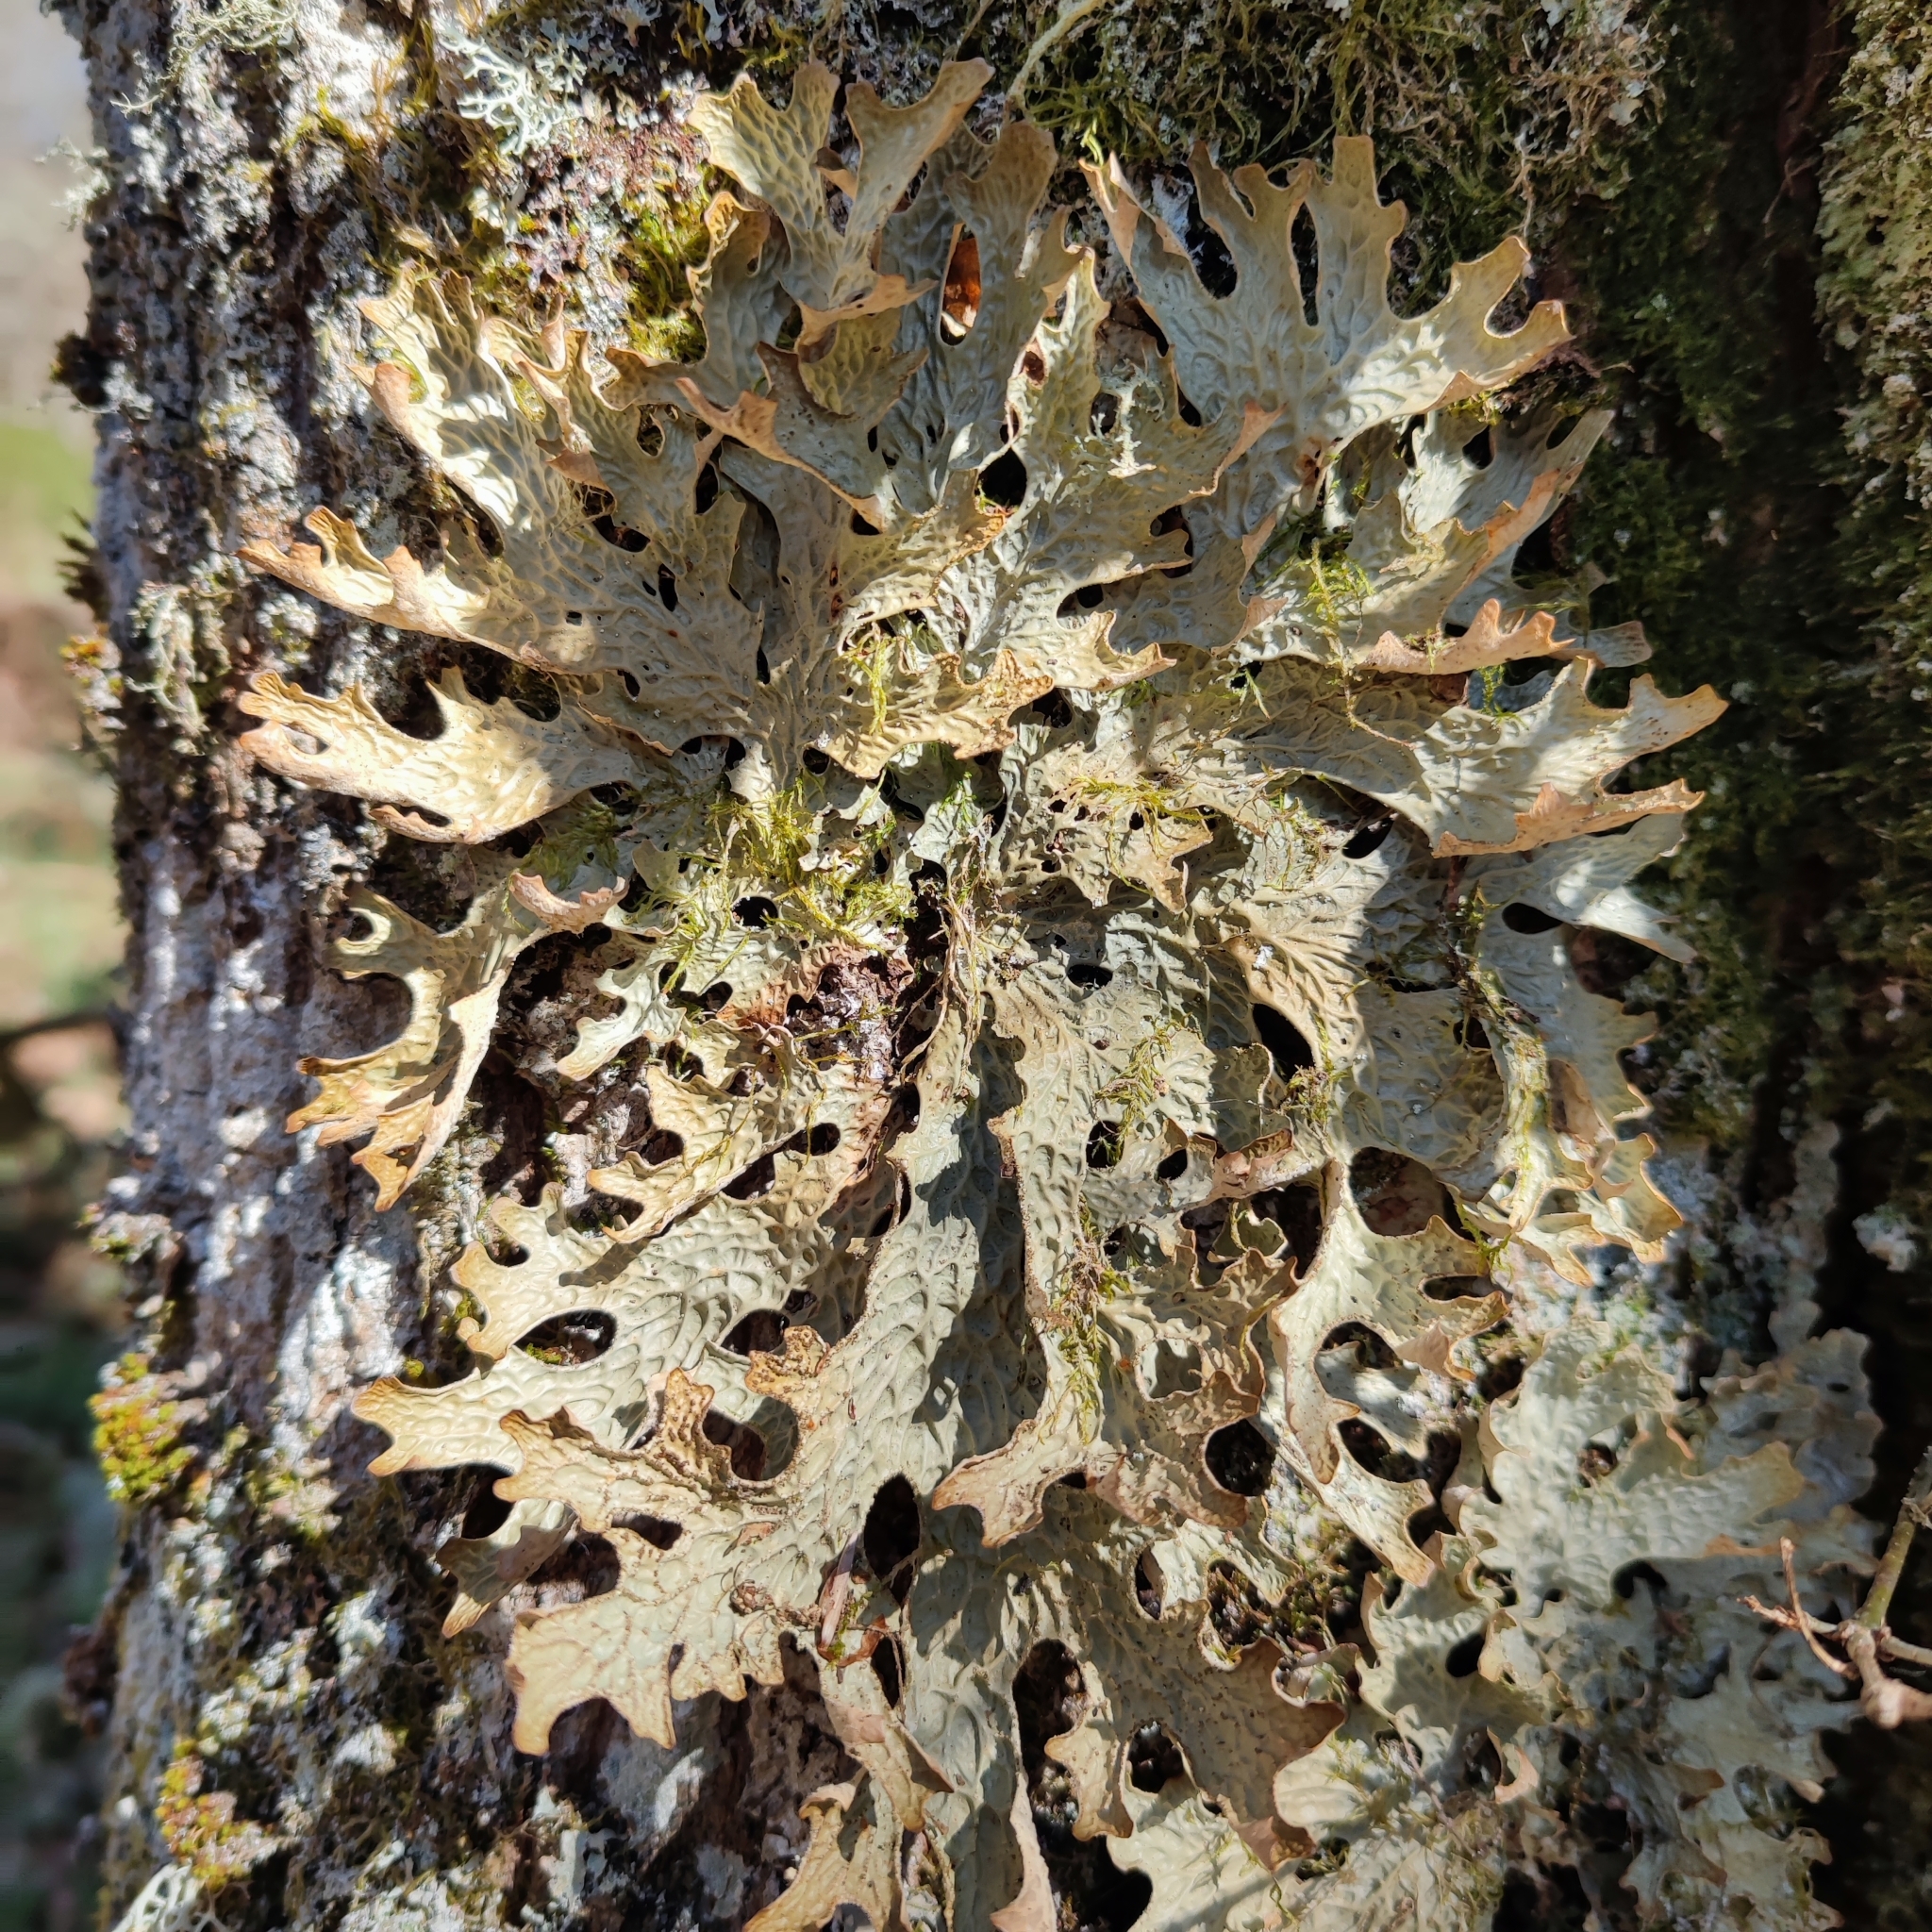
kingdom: Fungi
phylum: Ascomycota
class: Lecanoromycetes
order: Peltigerales
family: Lobariaceae
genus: Lobaria
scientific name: Lobaria pulmonaria
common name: Lungwort
